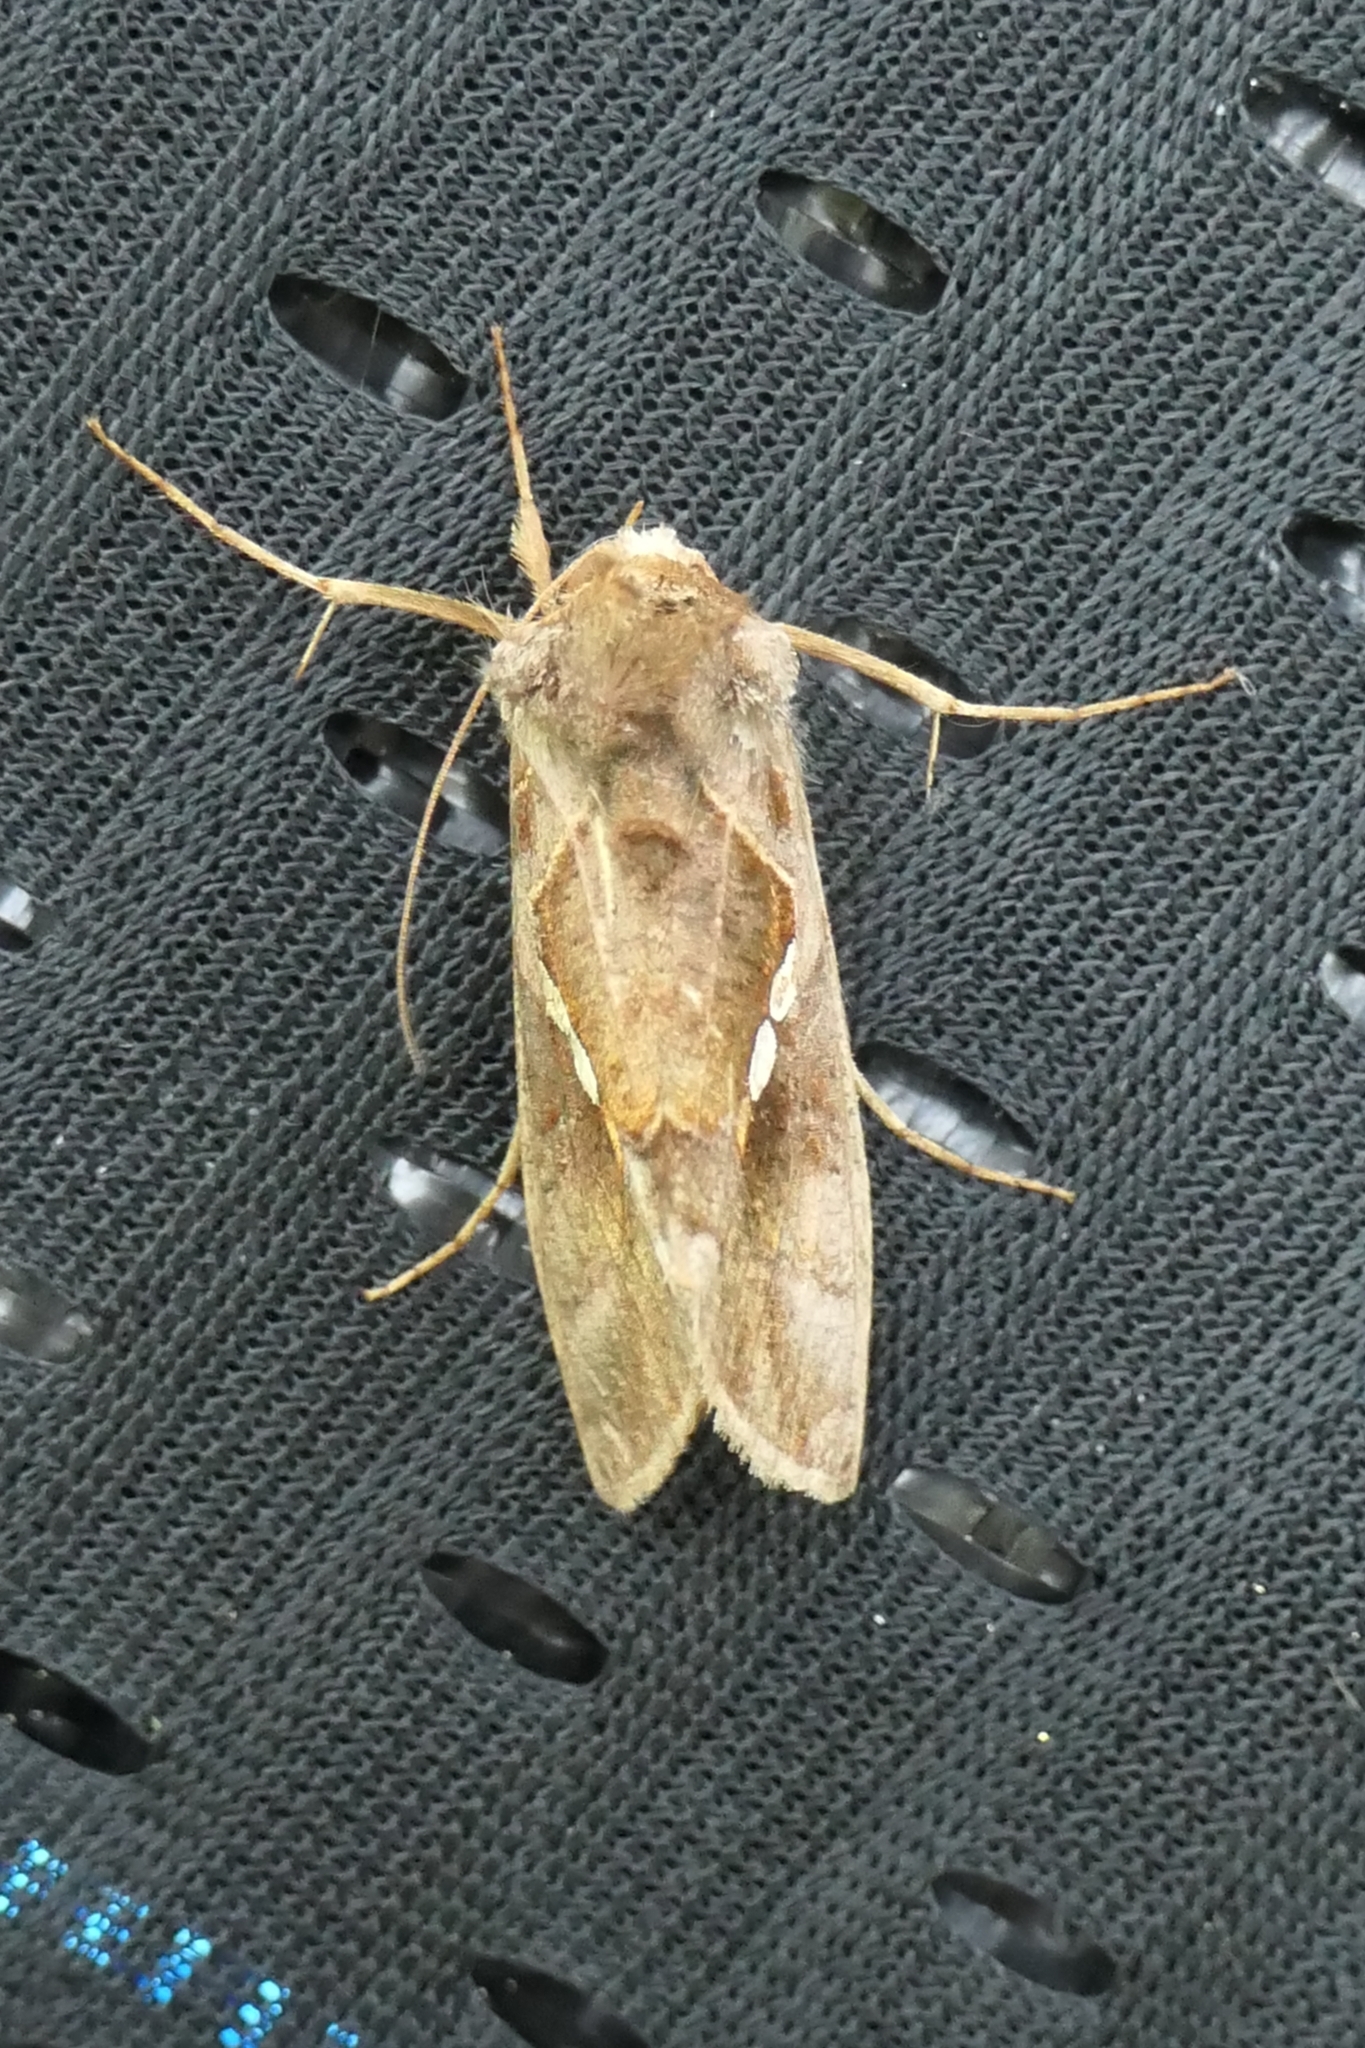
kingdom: Animalia
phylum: Arthropoda
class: Insecta
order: Lepidoptera
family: Noctuidae
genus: Chrysodeixis
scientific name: Chrysodeixis eriosoma
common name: Green garden looper
